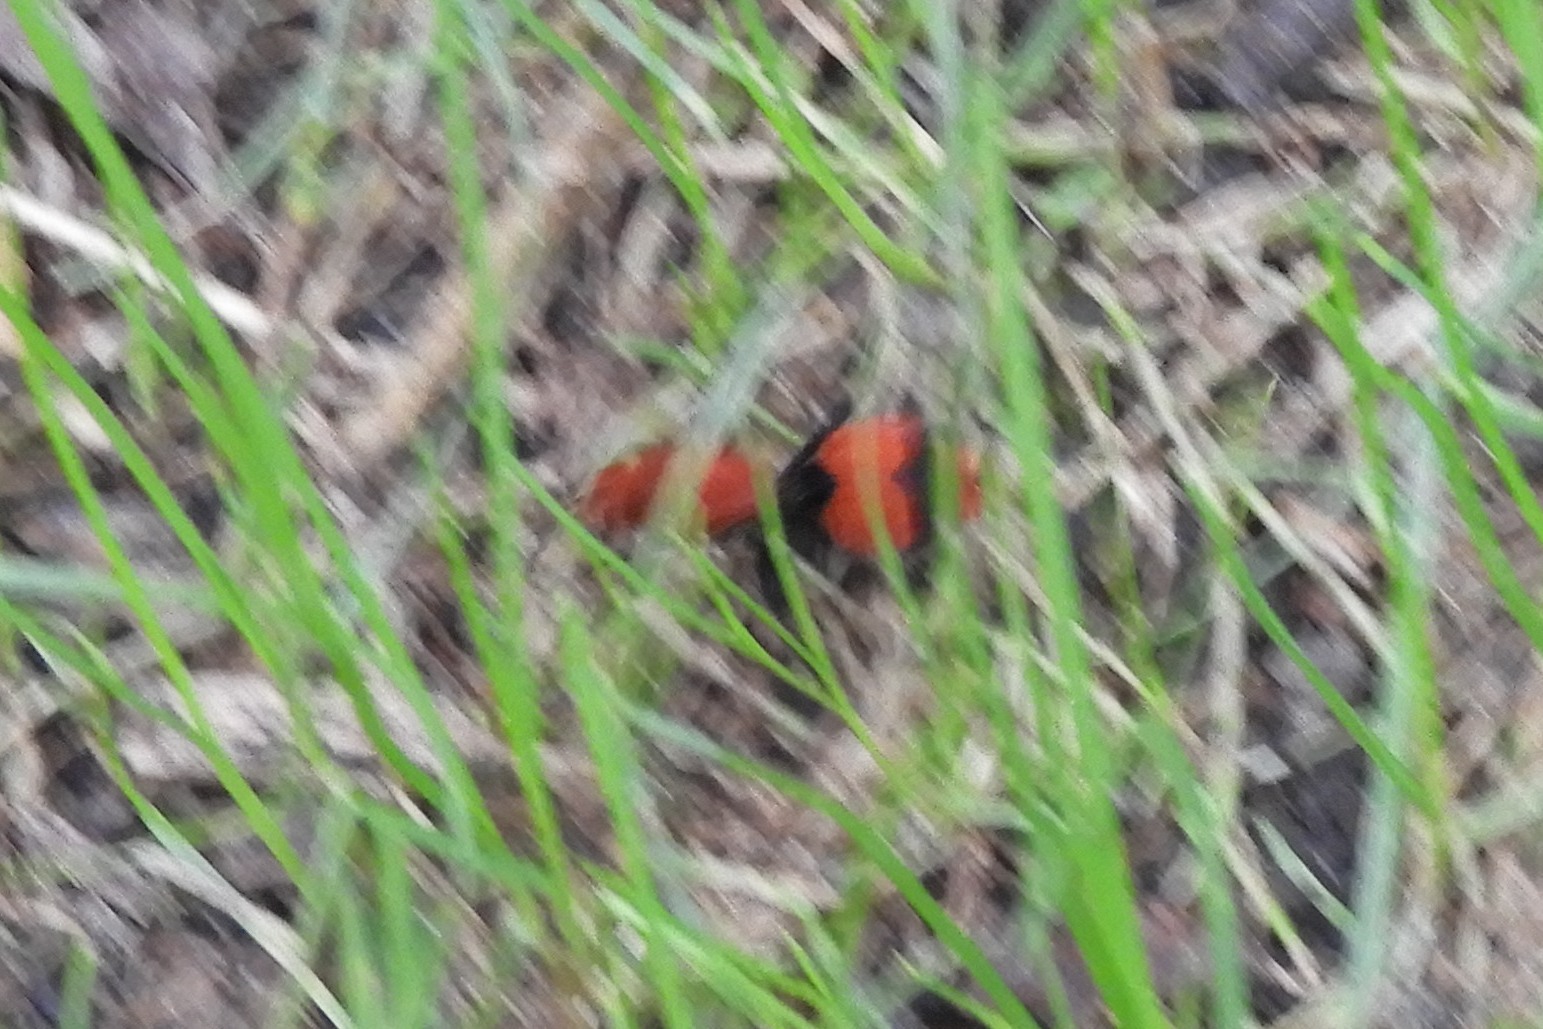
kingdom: Animalia
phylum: Arthropoda
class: Insecta
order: Hymenoptera
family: Mutillidae
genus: Dasymutilla
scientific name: Dasymutilla occidentalis
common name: Common eastern velvet ant
